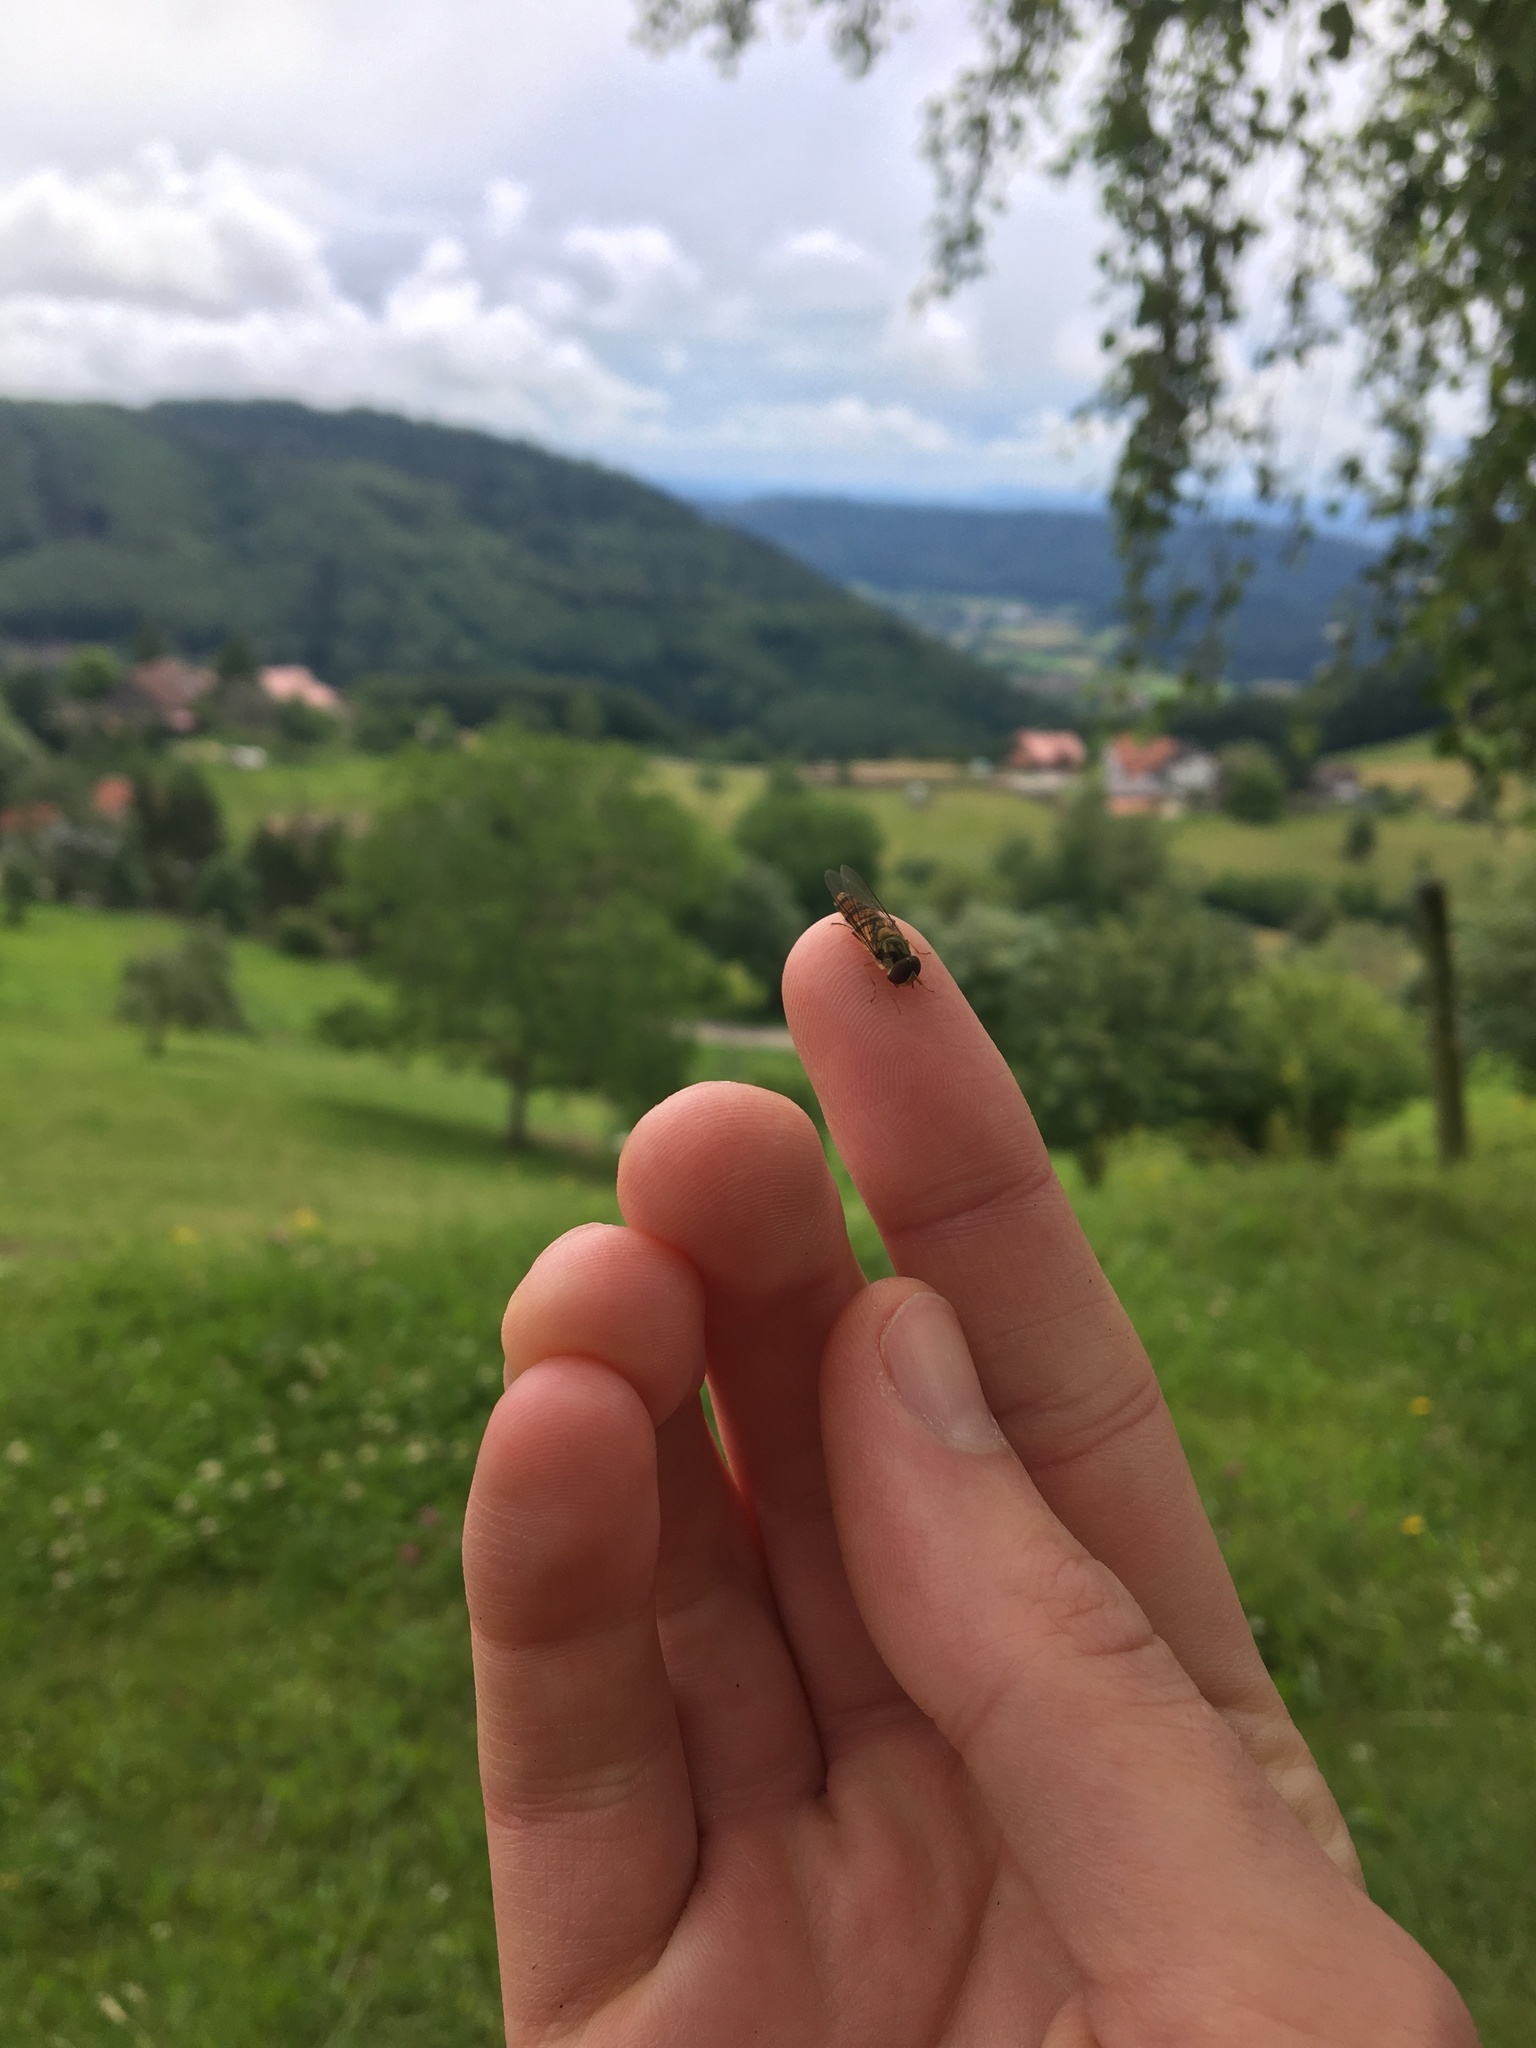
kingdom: Animalia
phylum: Arthropoda
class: Insecta
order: Diptera
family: Syrphidae
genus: Episyrphus
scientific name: Episyrphus balteatus
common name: Marmalade hoverfly
